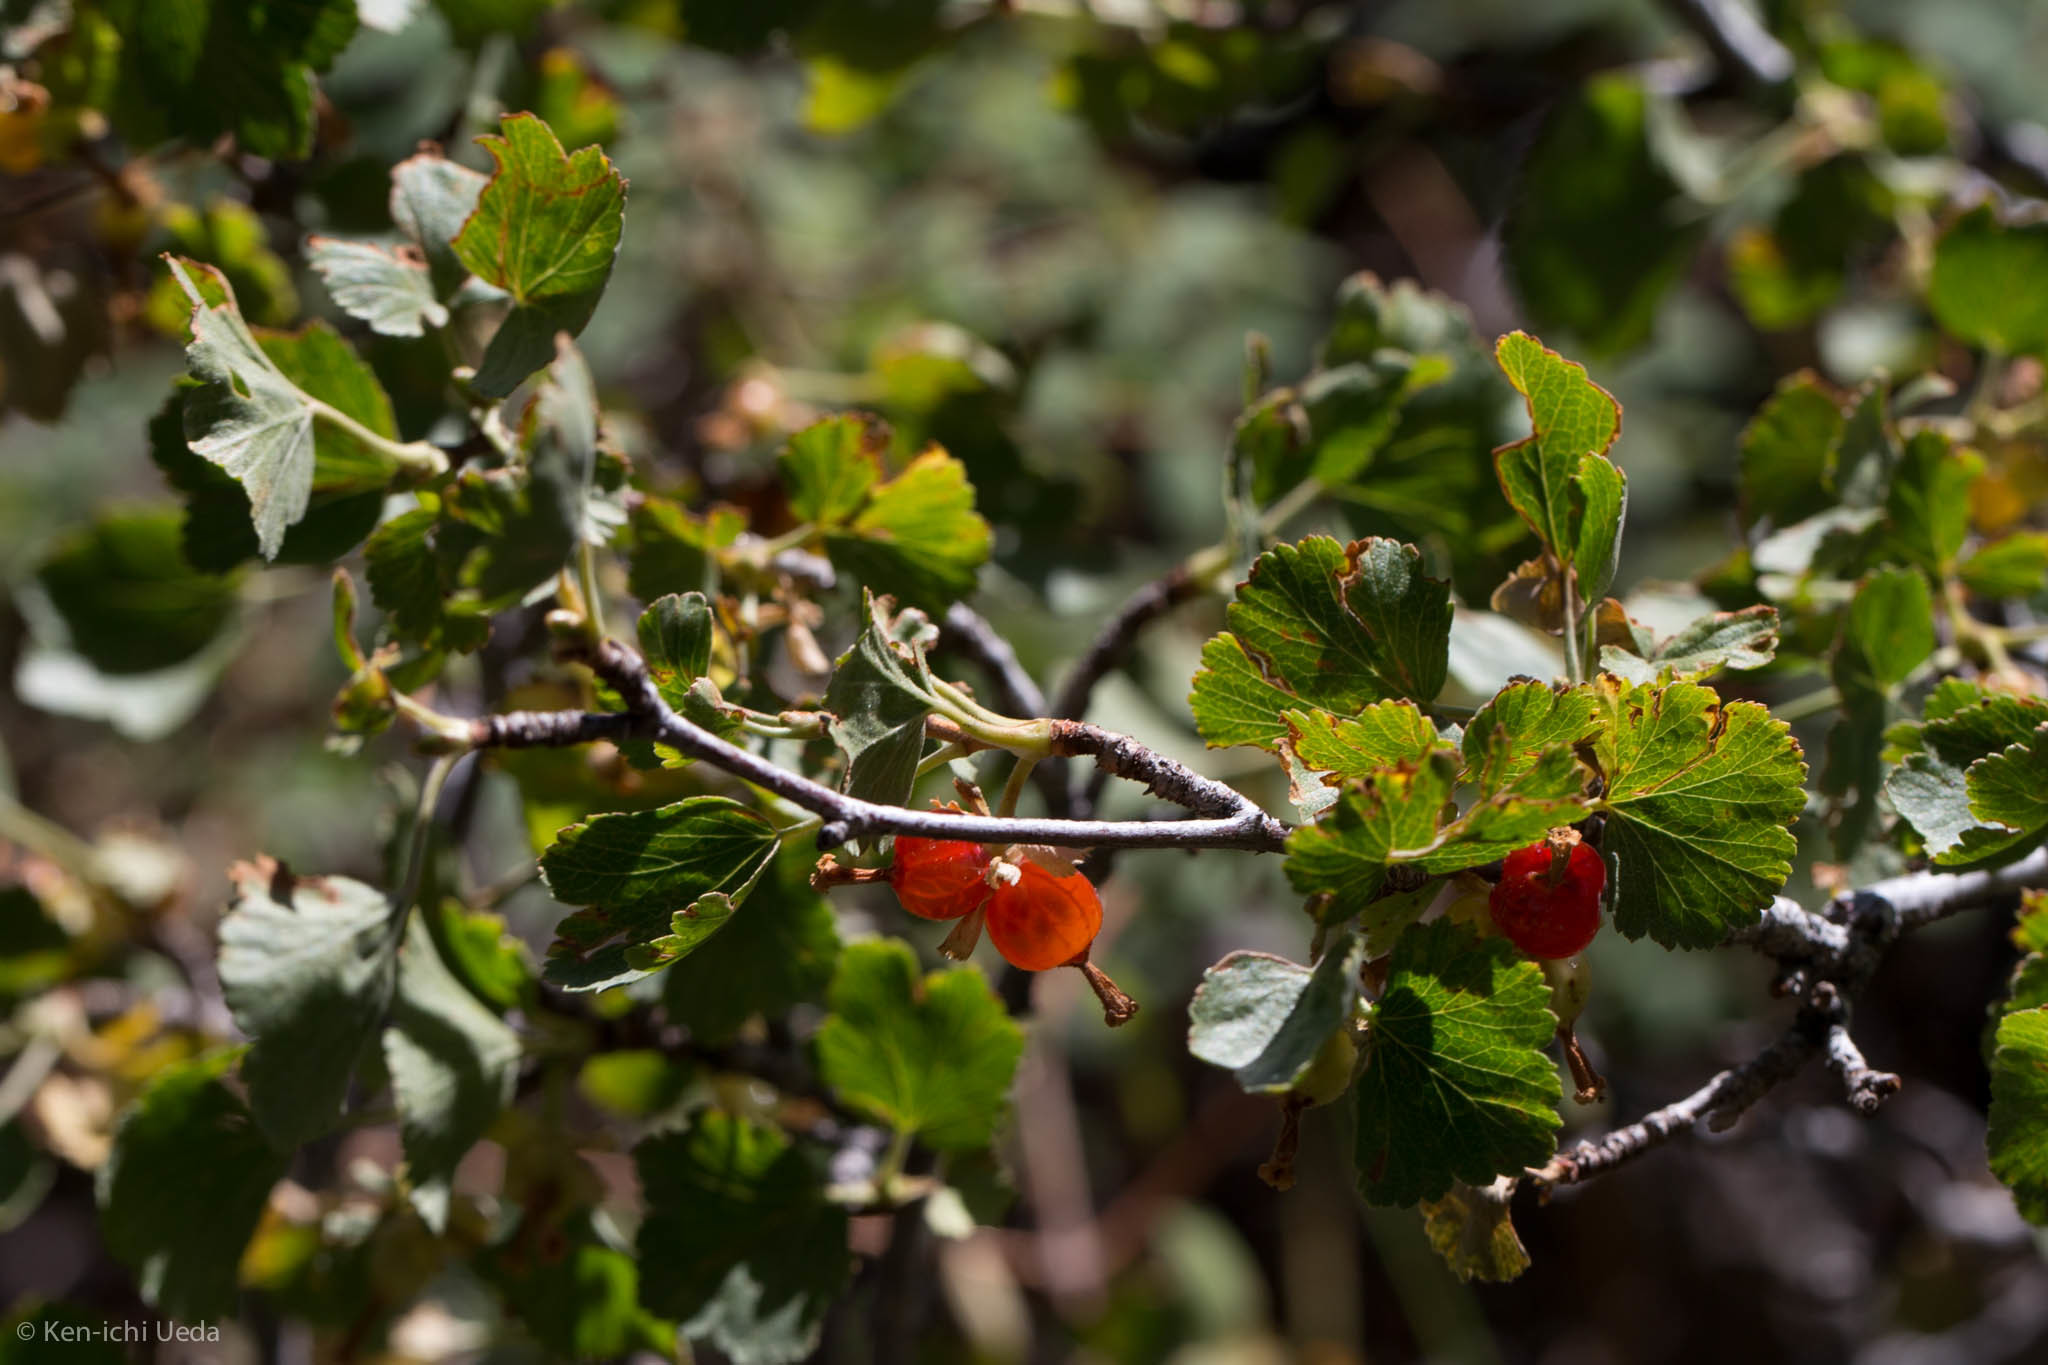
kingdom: Plantae
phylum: Tracheophyta
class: Magnoliopsida
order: Saxifragales
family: Grossulariaceae
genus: Ribes
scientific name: Ribes cereum
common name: Wax currant
